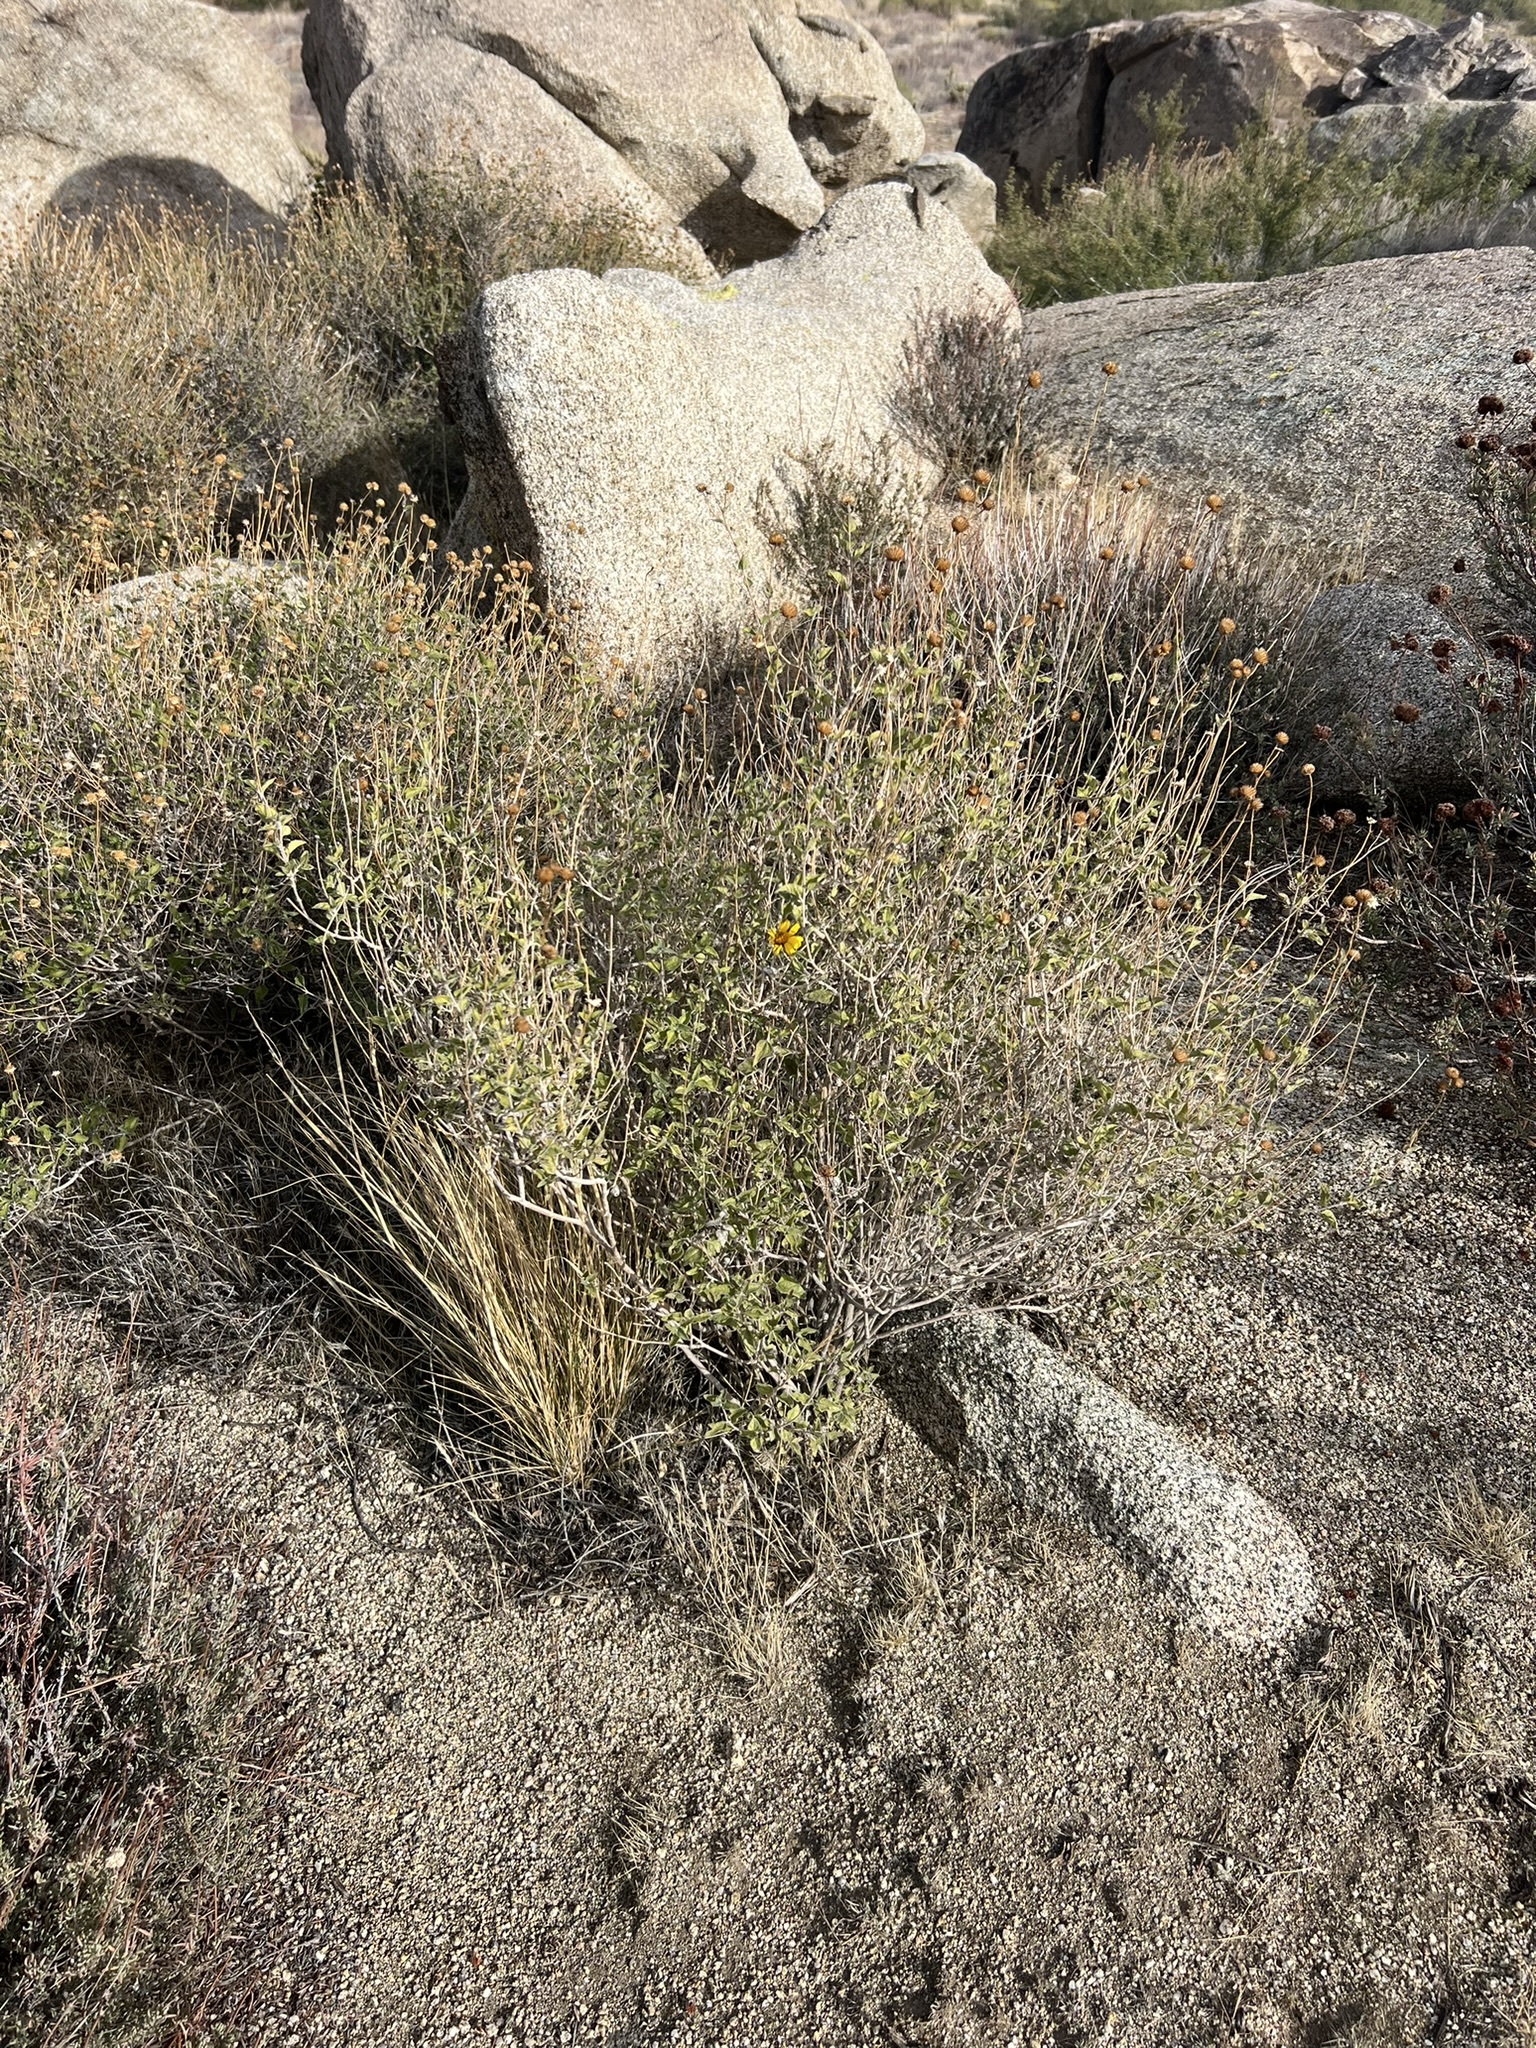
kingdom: Plantae
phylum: Tracheophyta
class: Magnoliopsida
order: Asterales
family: Asteraceae
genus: Bahiopsis
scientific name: Bahiopsis parishii
